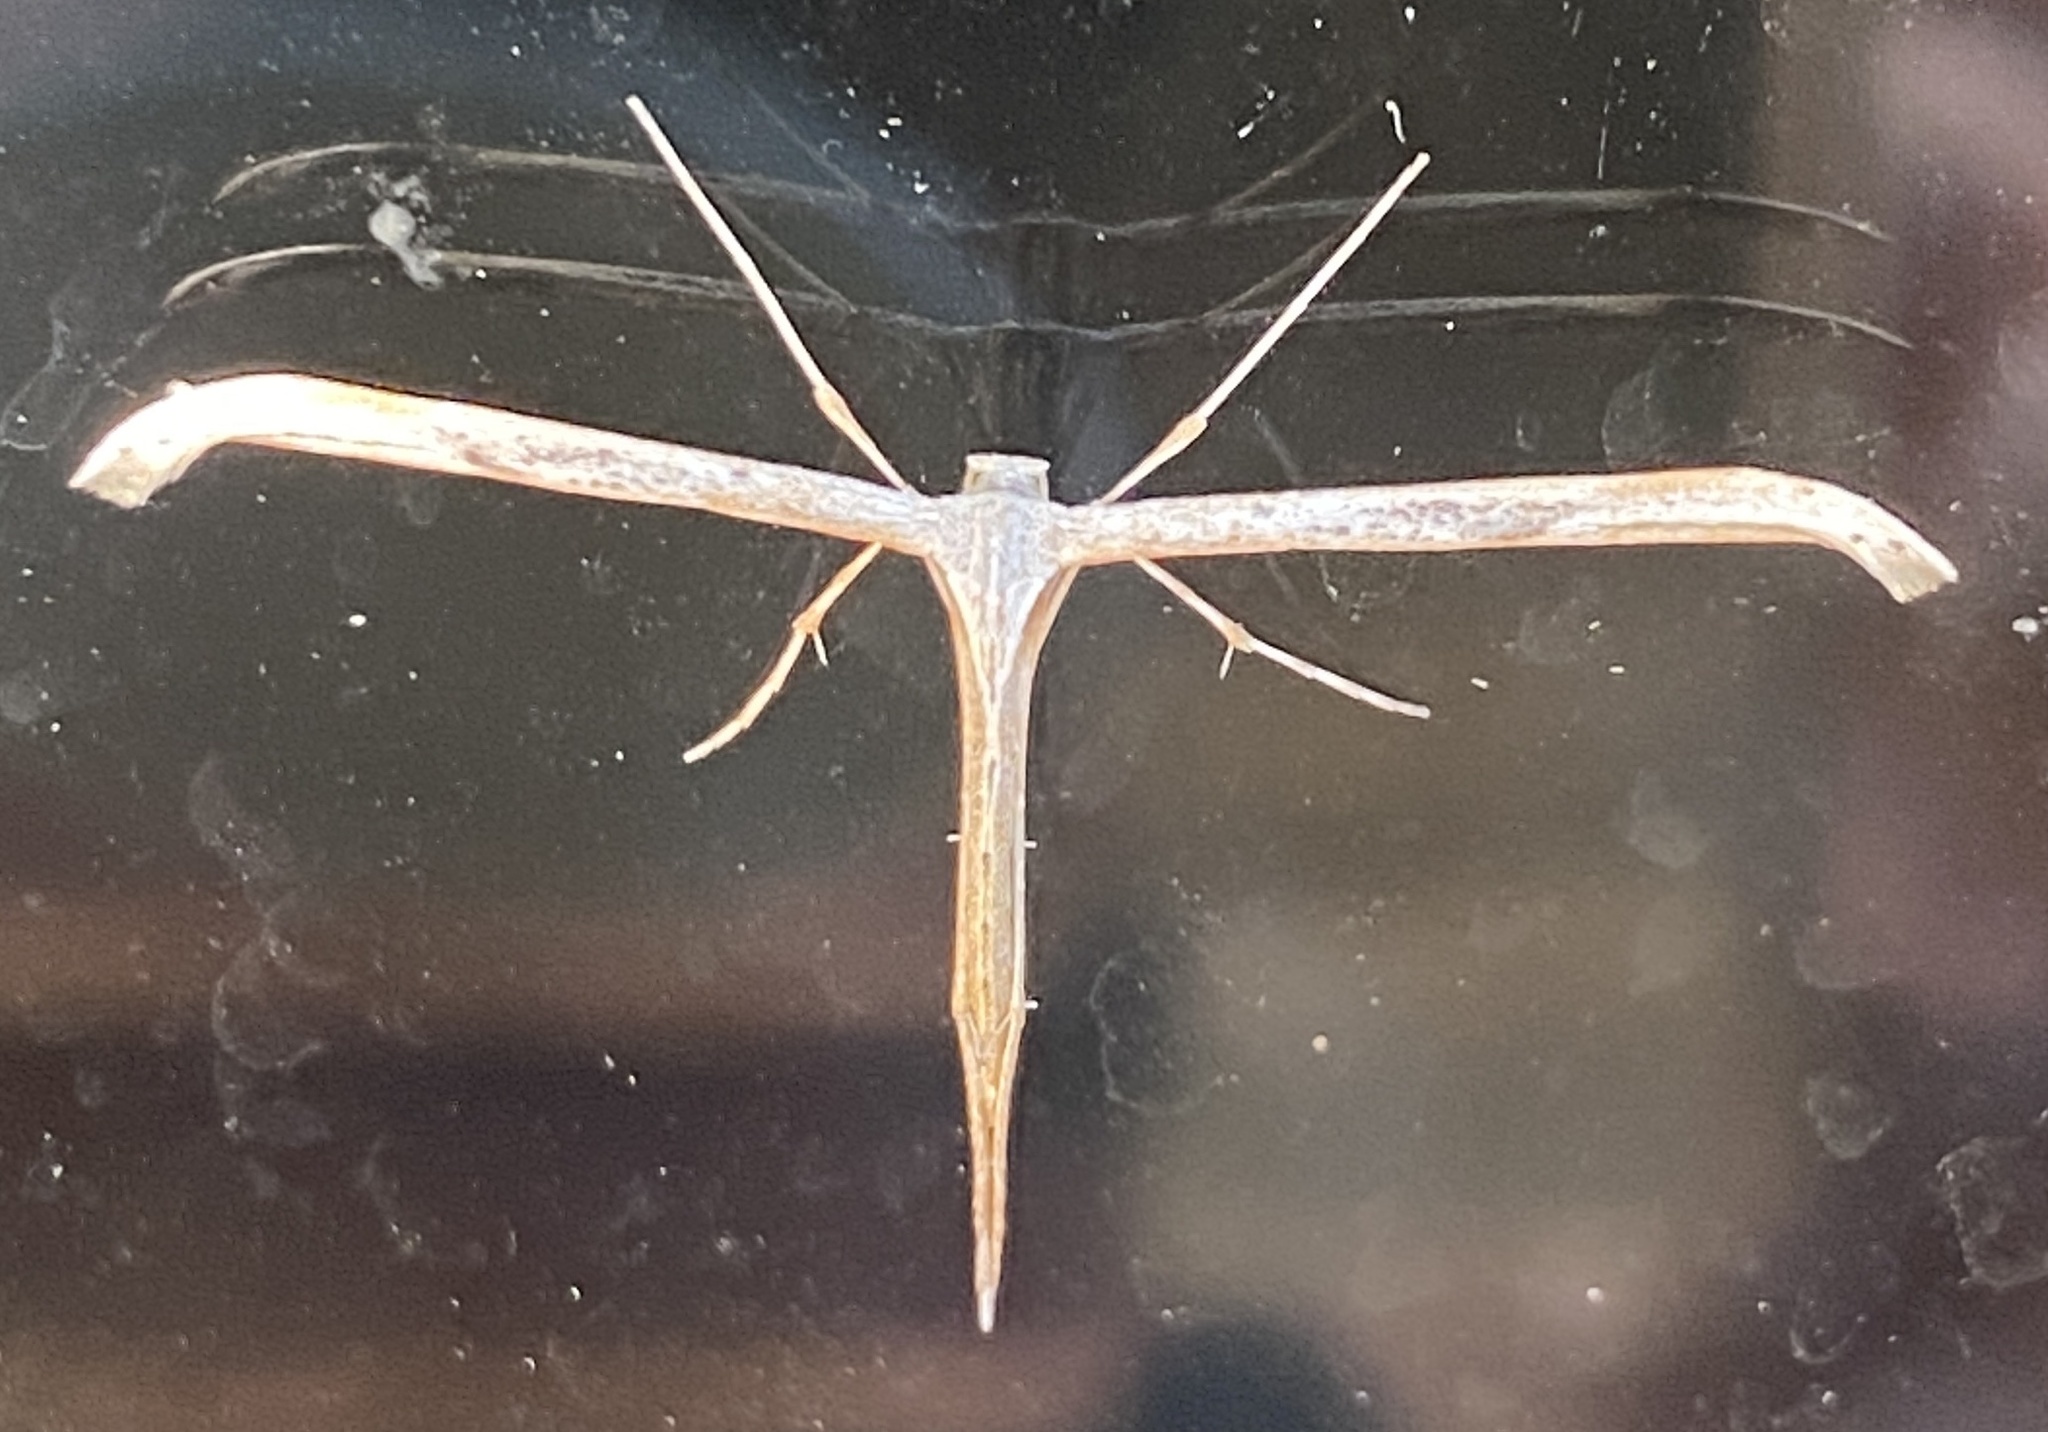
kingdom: Animalia
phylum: Arthropoda
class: Insecta
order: Lepidoptera
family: Pterophoridae
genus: Emmelina
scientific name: Emmelina monodactyla
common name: Common plume
